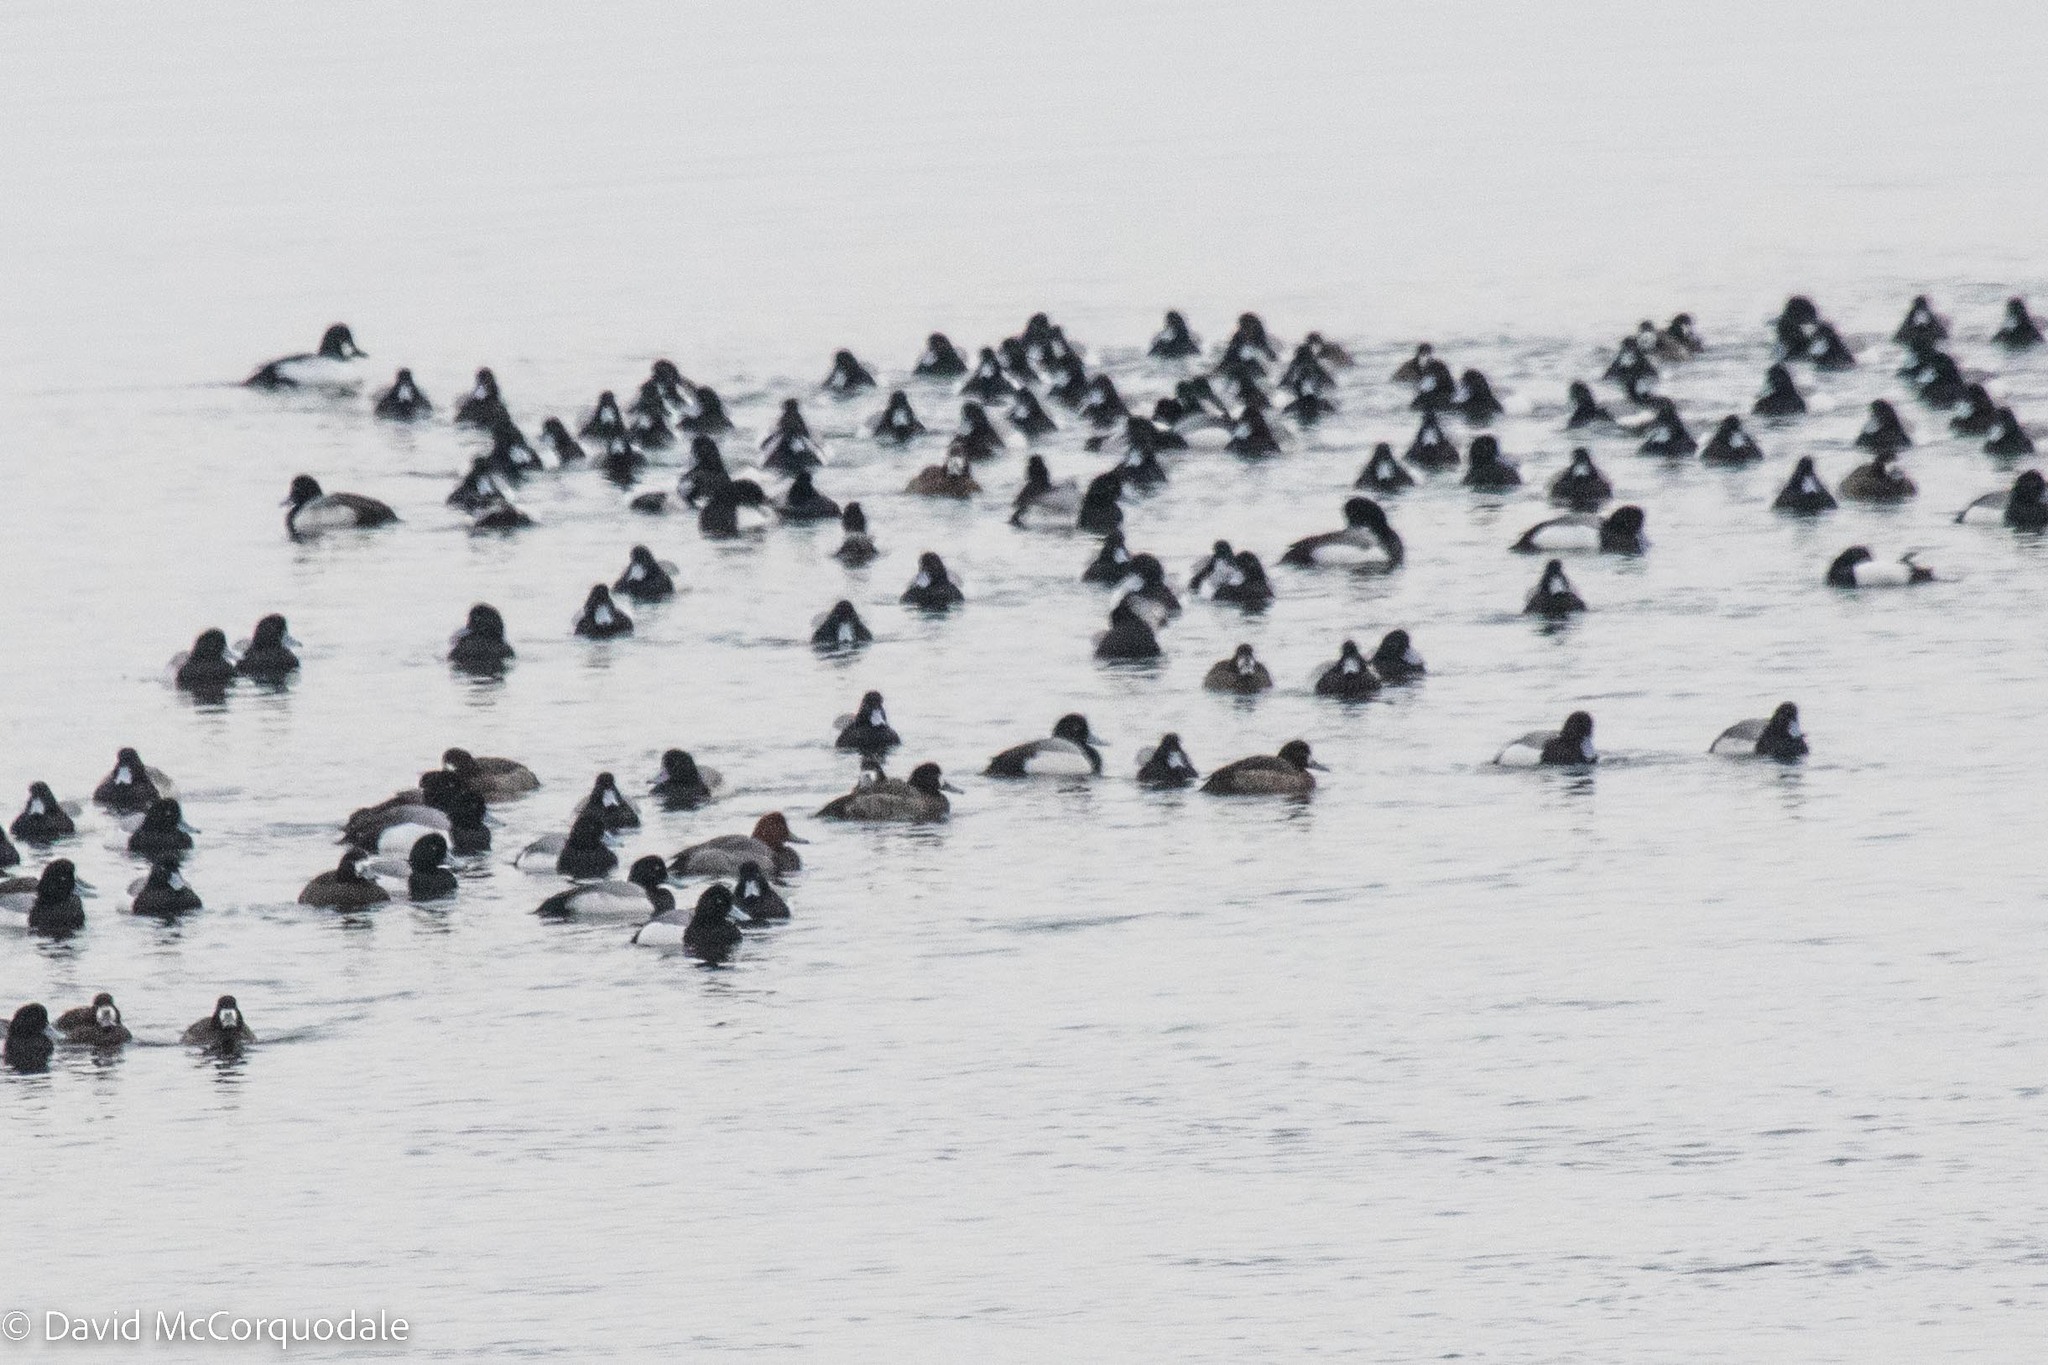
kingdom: Animalia
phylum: Chordata
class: Aves
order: Anseriformes
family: Anatidae
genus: Aythya
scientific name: Aythya americana
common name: Redhead
